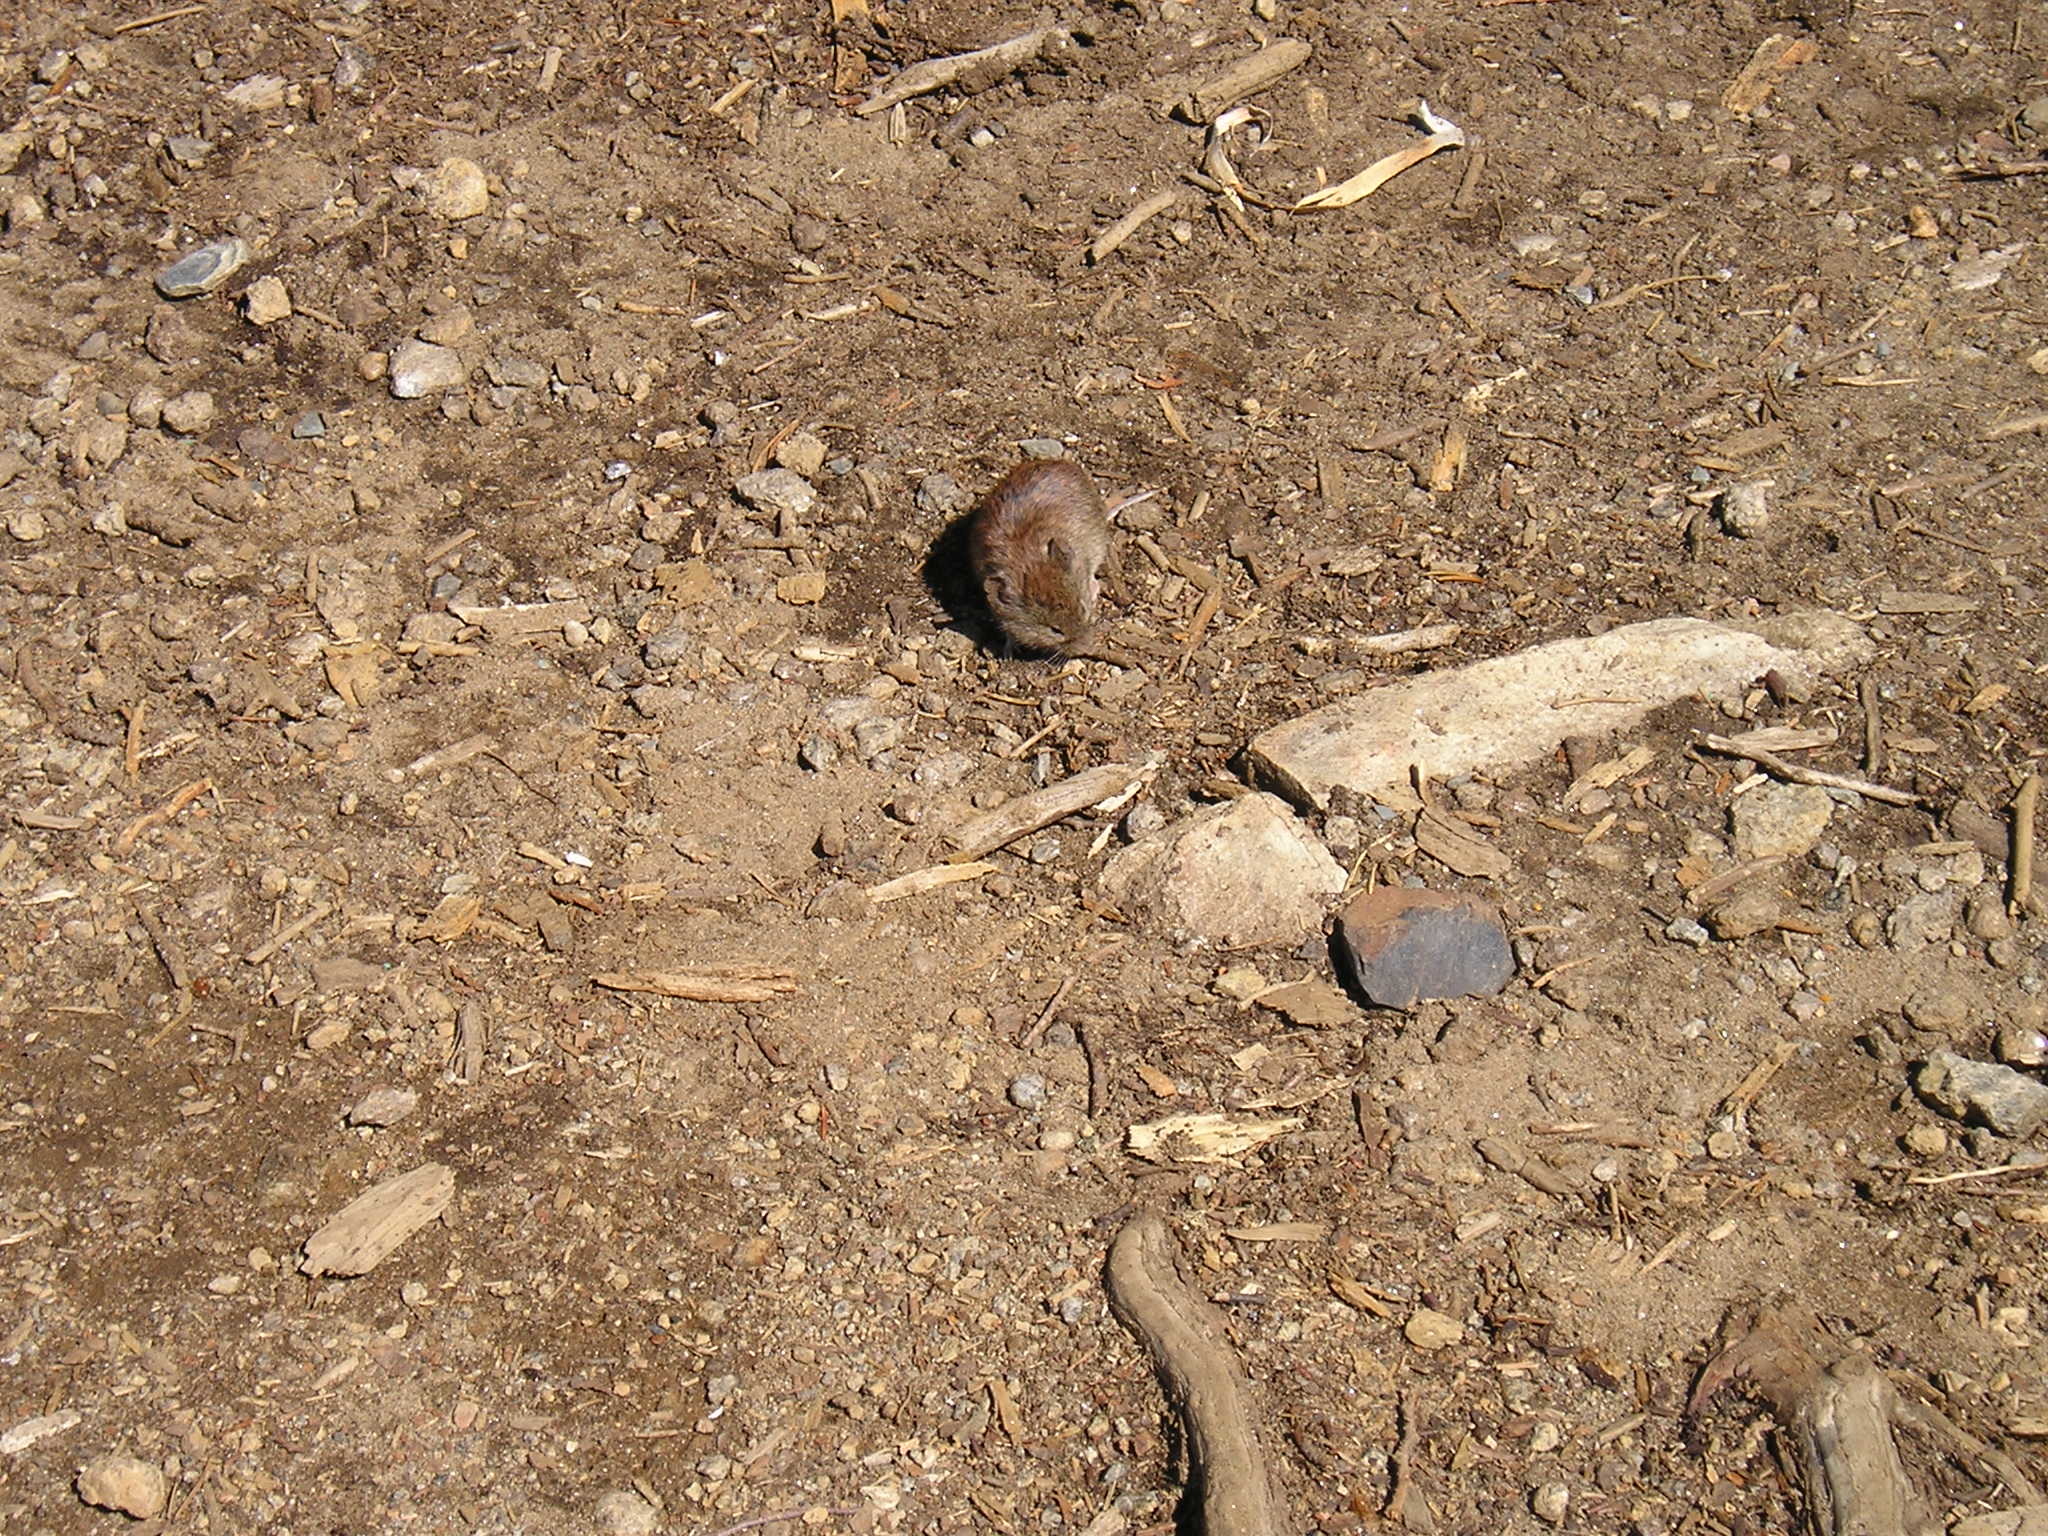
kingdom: Animalia
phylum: Chordata
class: Mammalia
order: Rodentia
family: Cricetidae
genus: Myodes
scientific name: Myodes gapperi
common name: Southern red-backed vole
